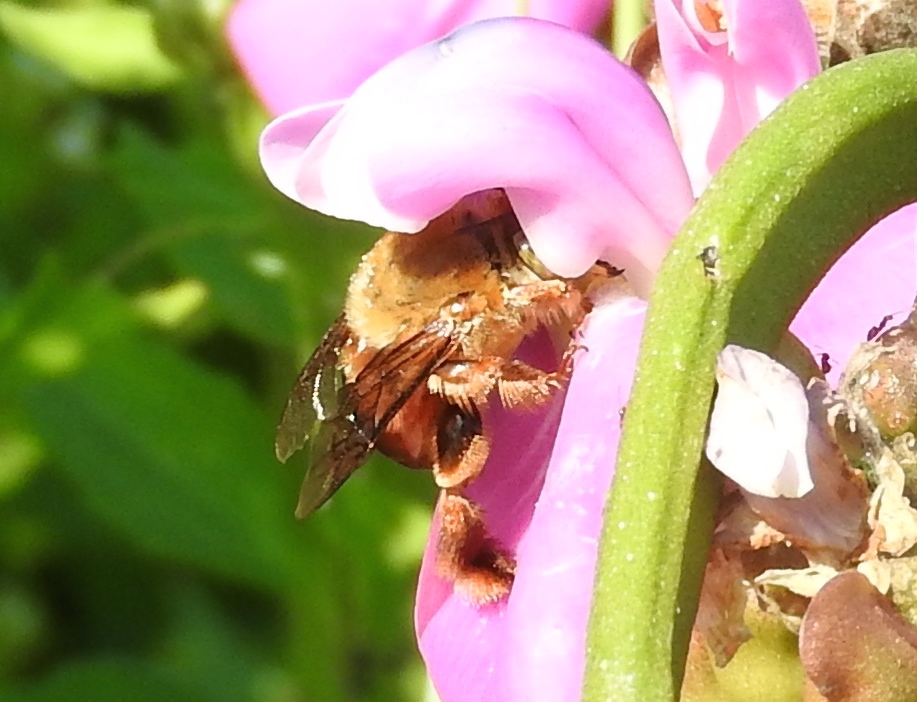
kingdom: Animalia
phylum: Arthropoda
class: Insecta
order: Hymenoptera
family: Apidae
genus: Centris
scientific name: Centris eurypatana
